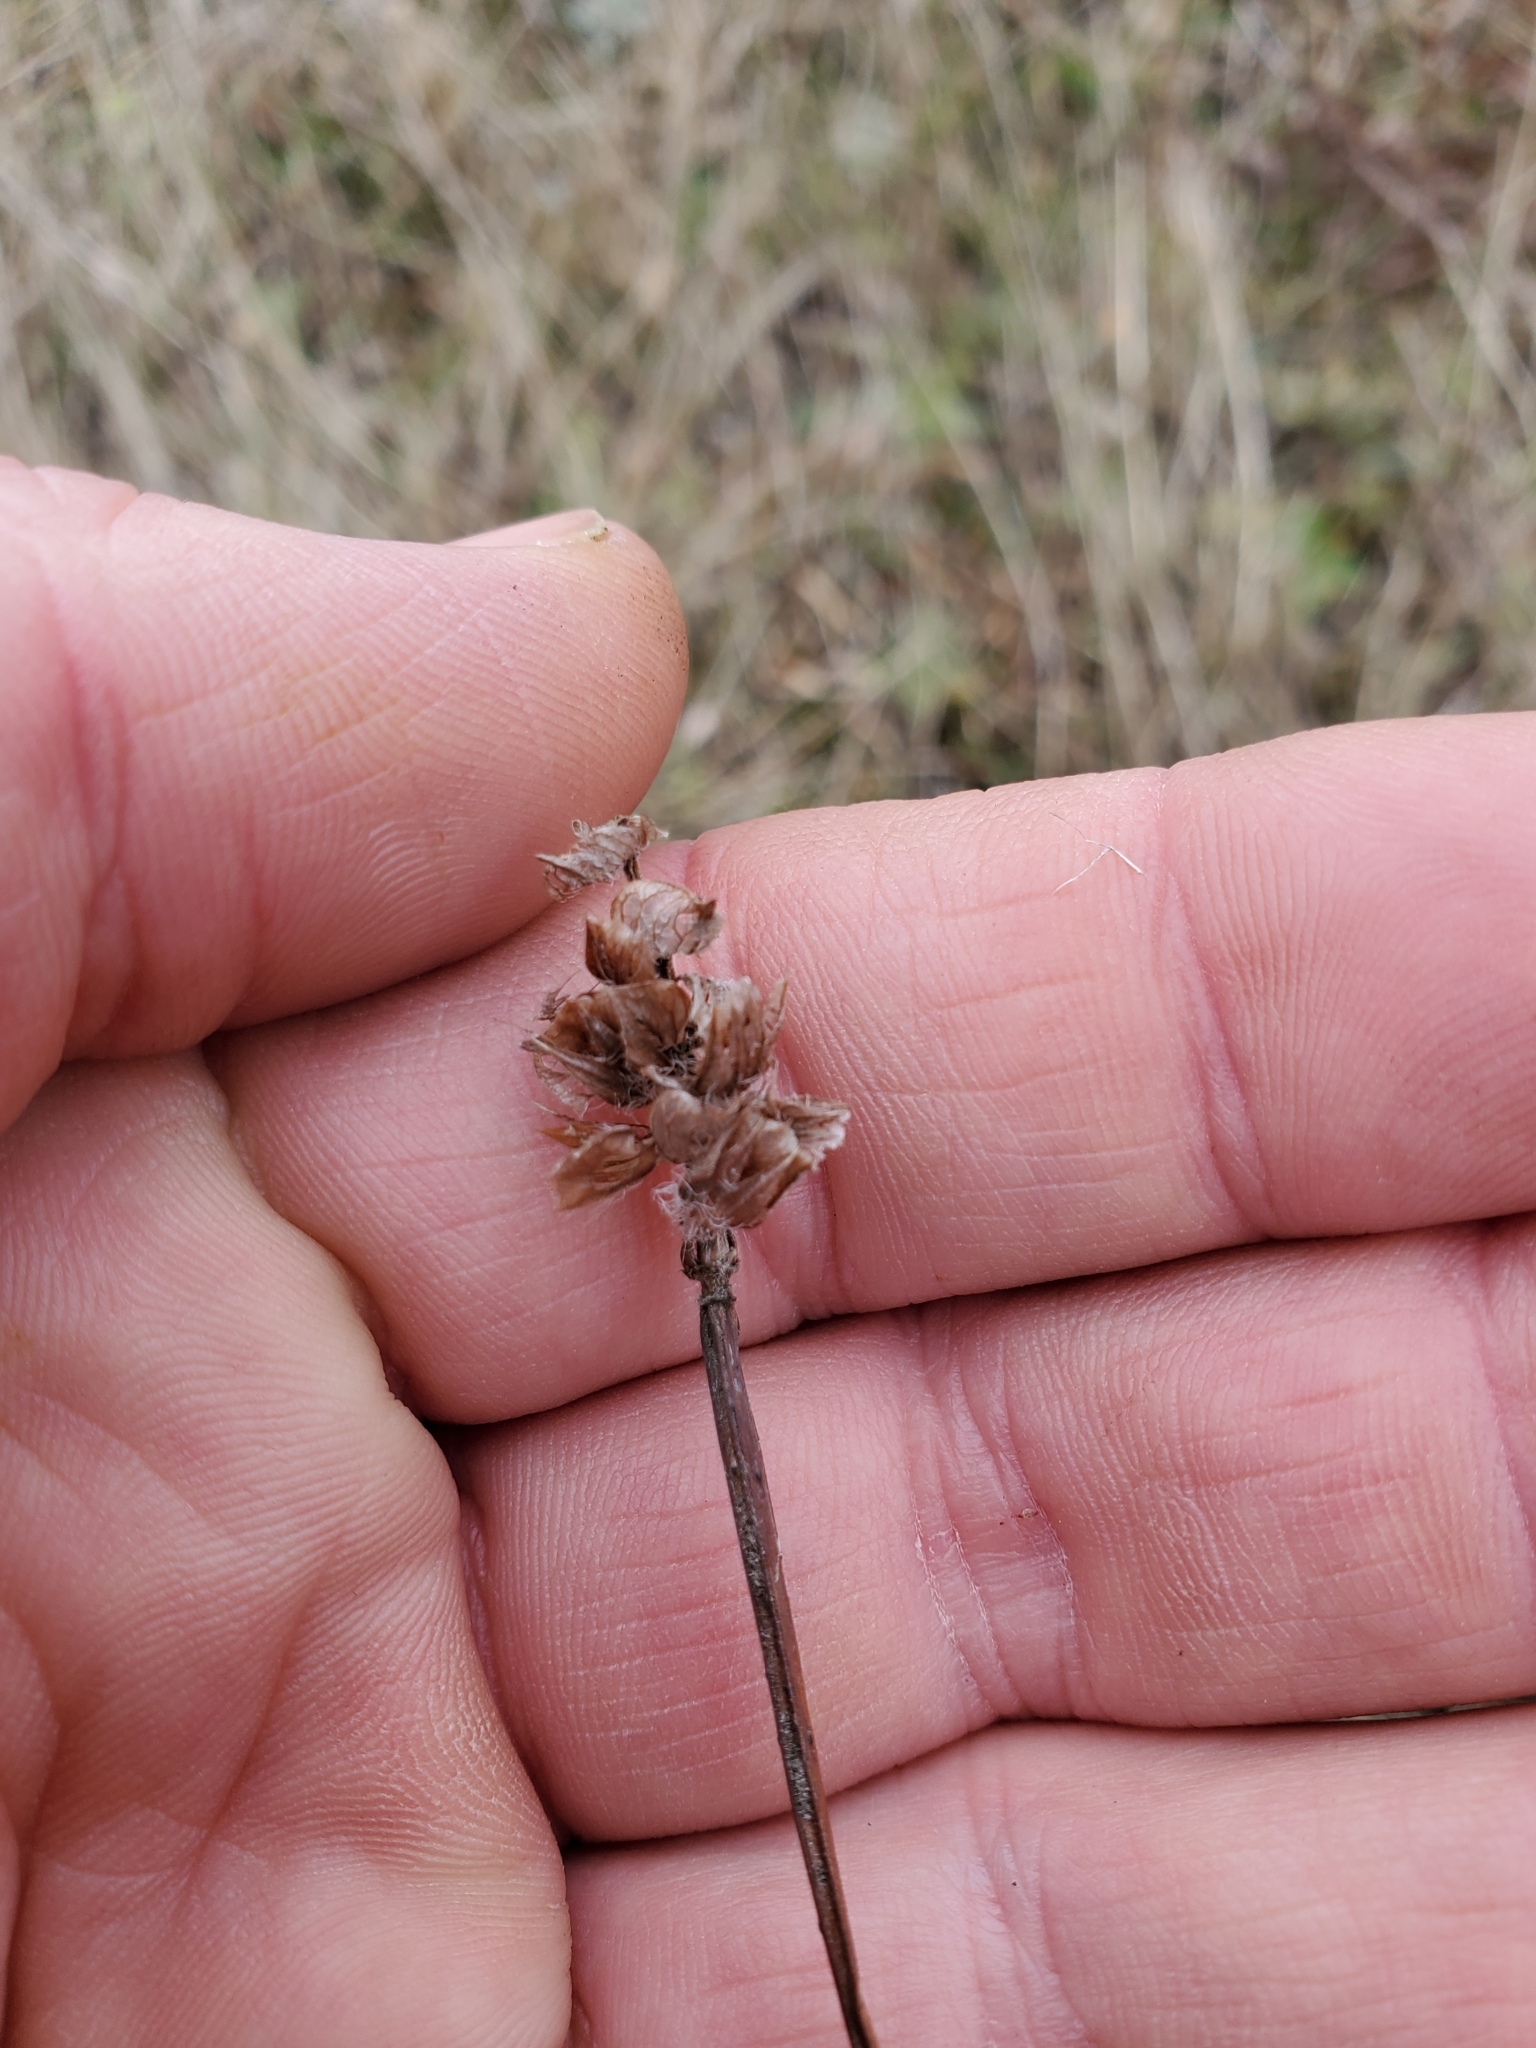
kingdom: Plantae
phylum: Tracheophyta
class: Magnoliopsida
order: Lamiales
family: Lamiaceae
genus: Prunella
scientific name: Prunella vulgaris
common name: Heal-all
